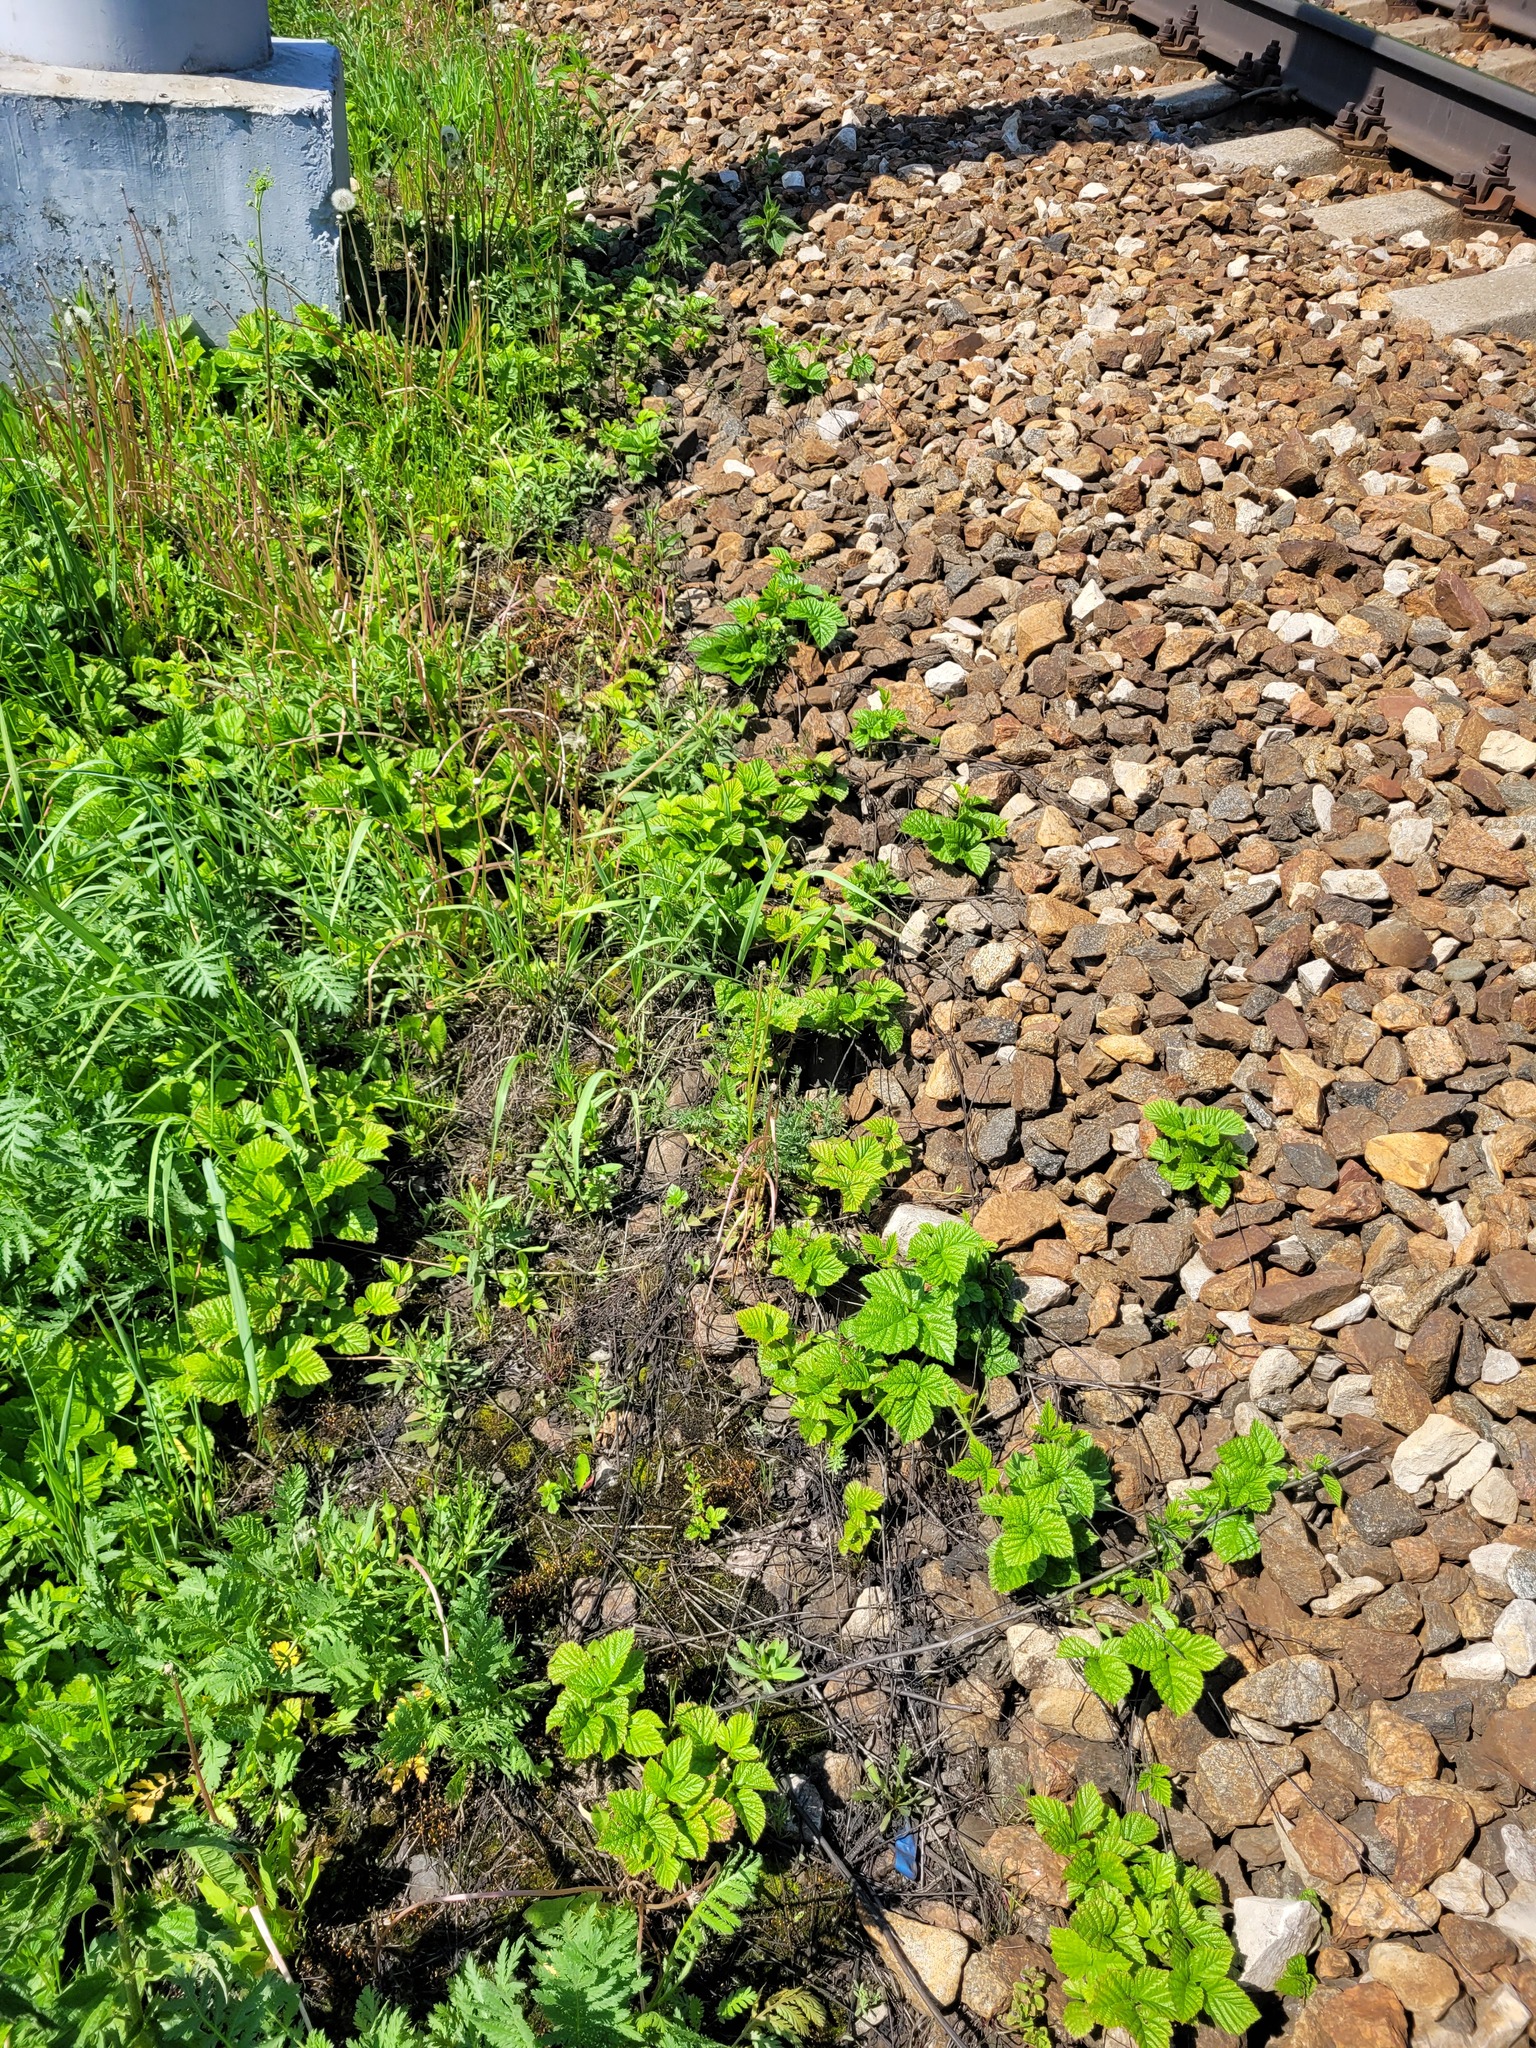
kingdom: Plantae
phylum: Tracheophyta
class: Magnoliopsida
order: Rosales
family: Rosaceae
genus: Rubus
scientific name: Rubus saxatilis
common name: Stone bramble
